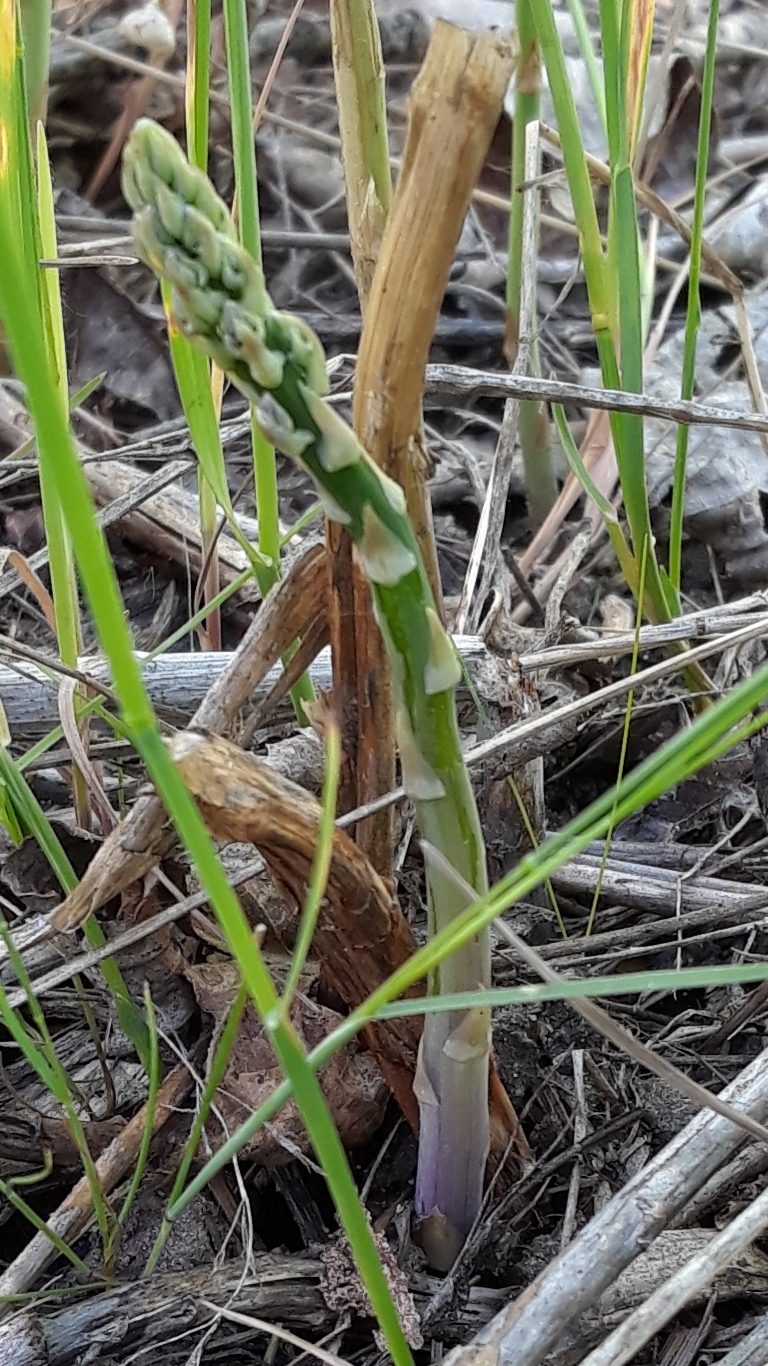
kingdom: Plantae
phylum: Tracheophyta
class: Liliopsida
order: Asparagales
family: Asparagaceae
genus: Asparagus
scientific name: Asparagus officinalis
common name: Garden asparagus
